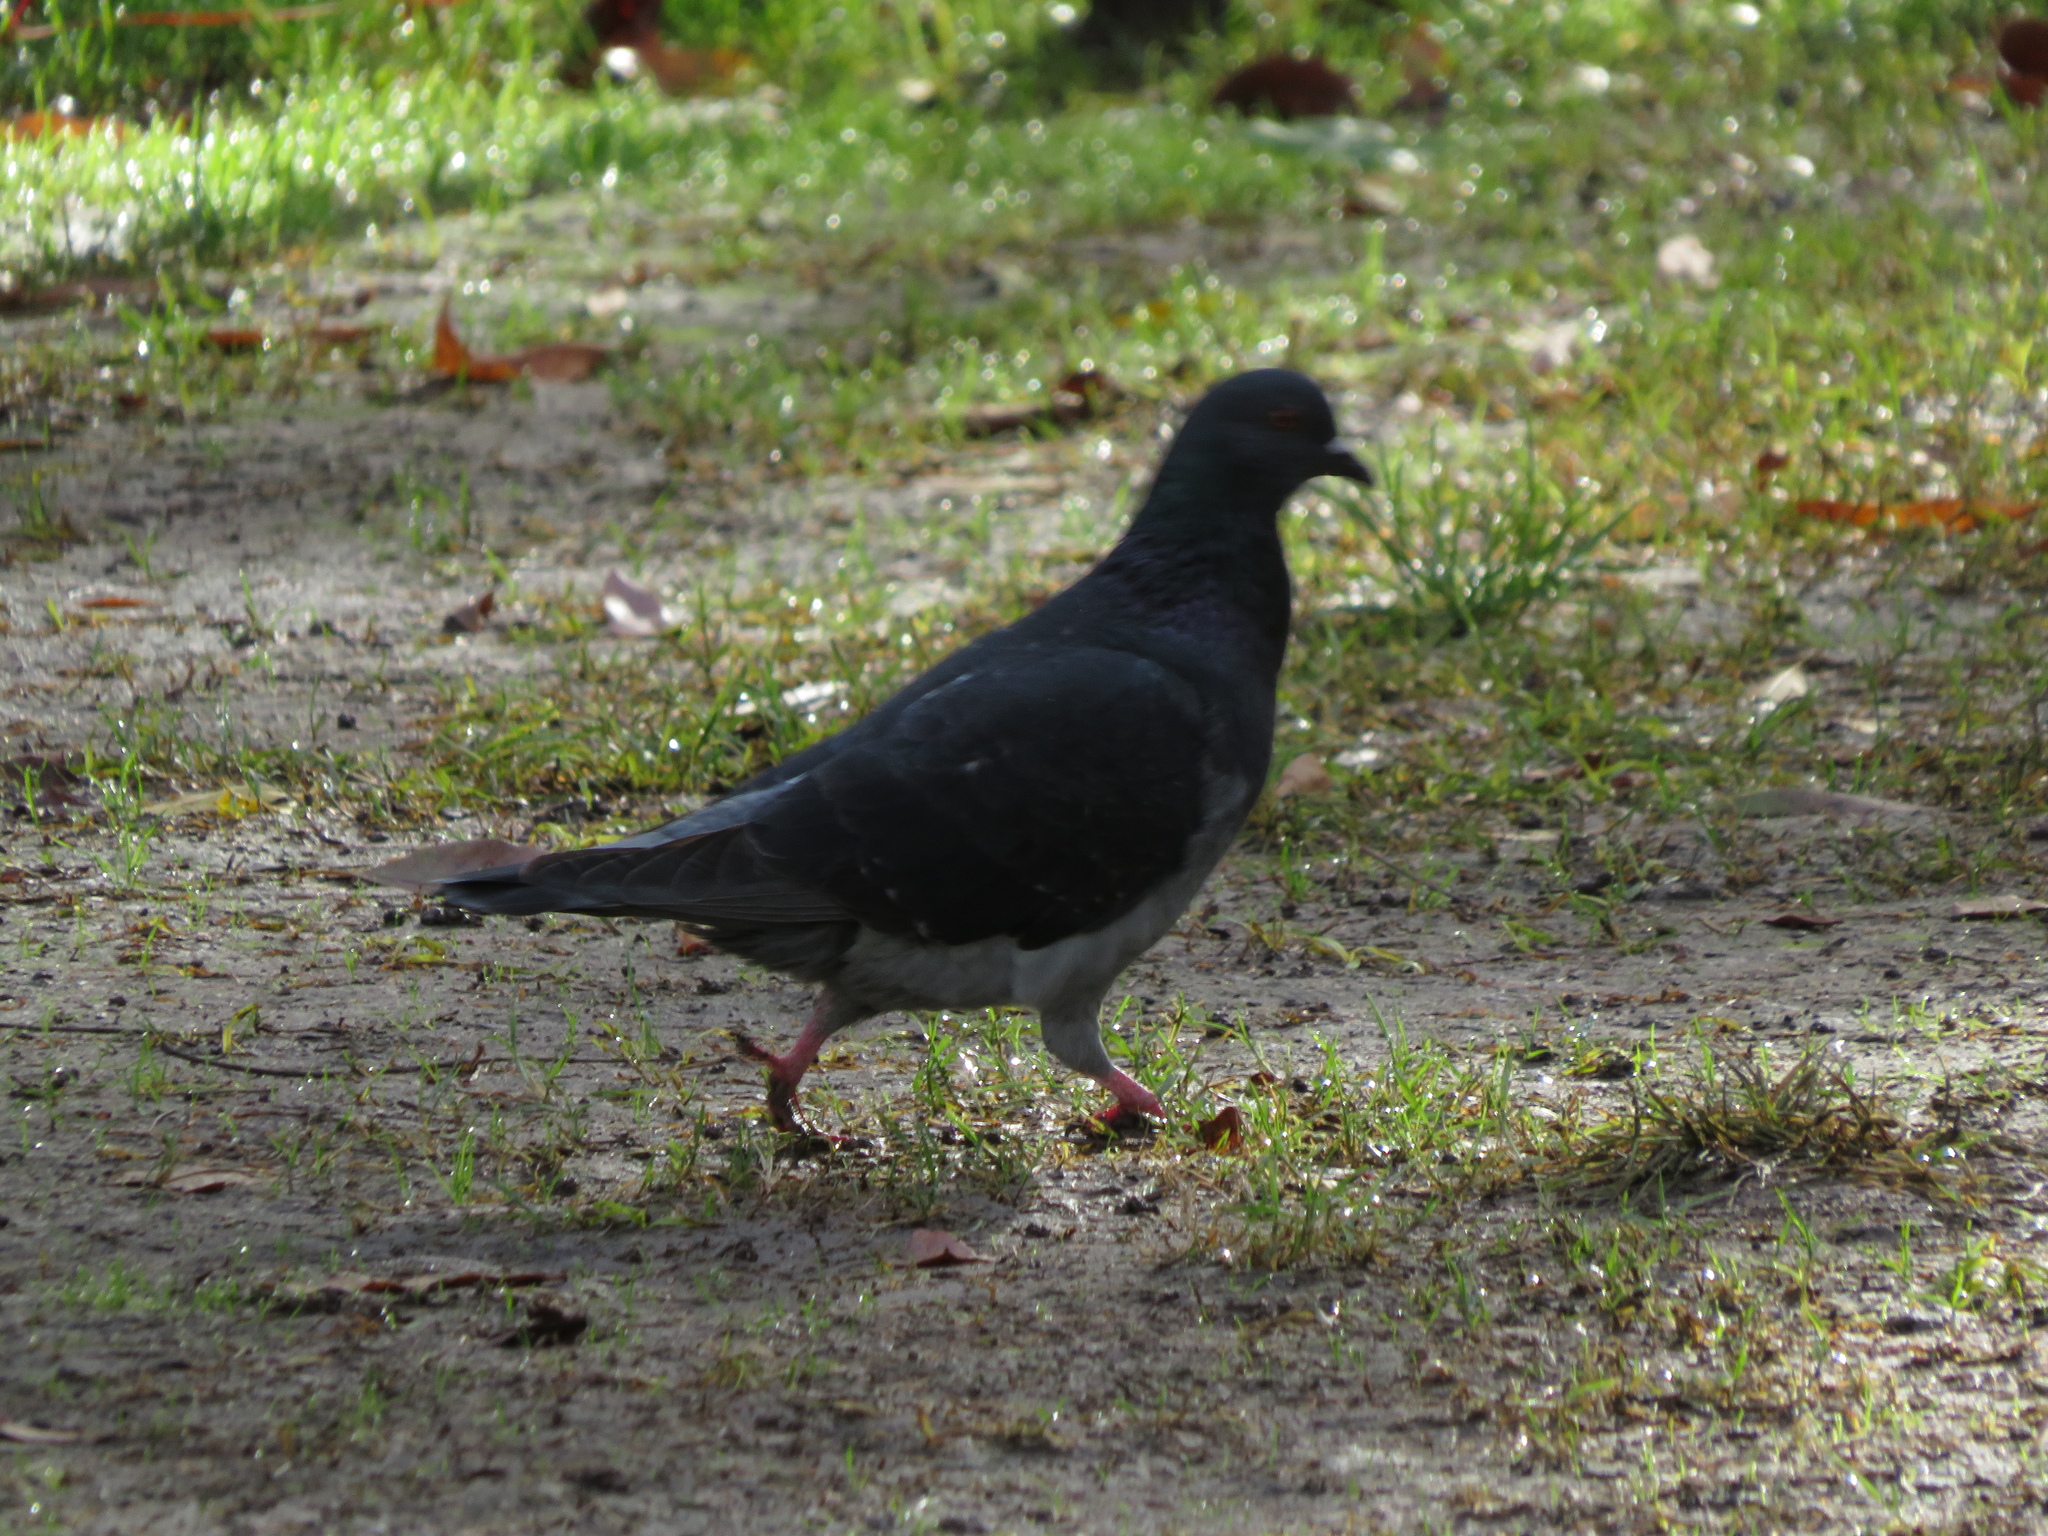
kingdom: Animalia
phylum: Chordata
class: Aves
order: Columbiformes
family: Columbidae
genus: Columba
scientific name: Columba livia
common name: Rock pigeon
